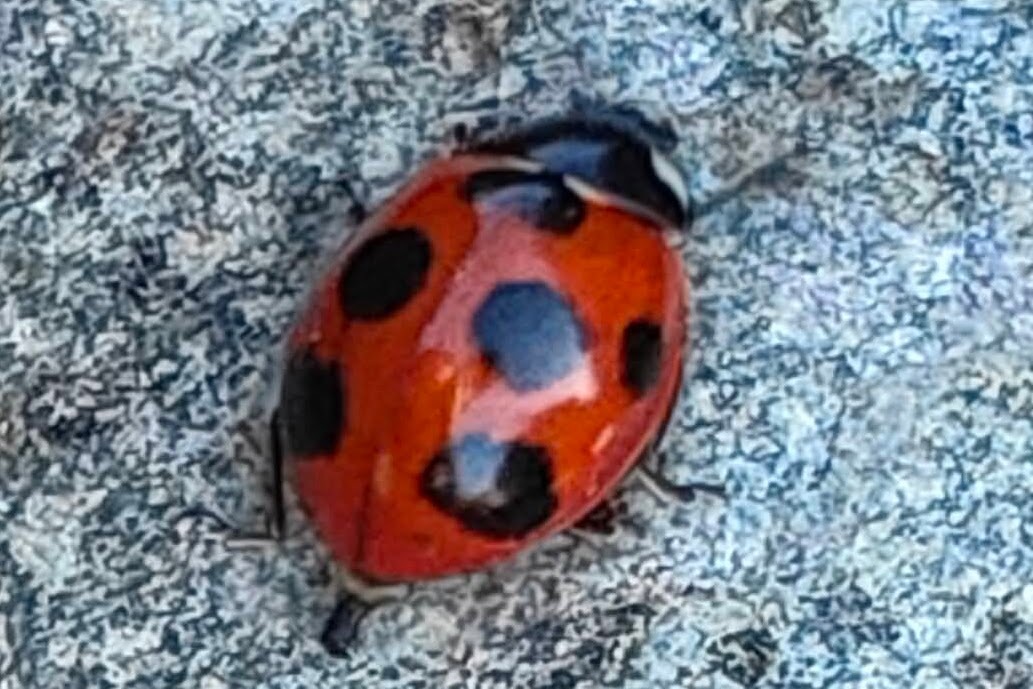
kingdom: Animalia
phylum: Arthropoda
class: Insecta
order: Coleoptera
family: Coccinellidae
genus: Coccinella
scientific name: Coccinella septempunctata
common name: Sevenspotted lady beetle
